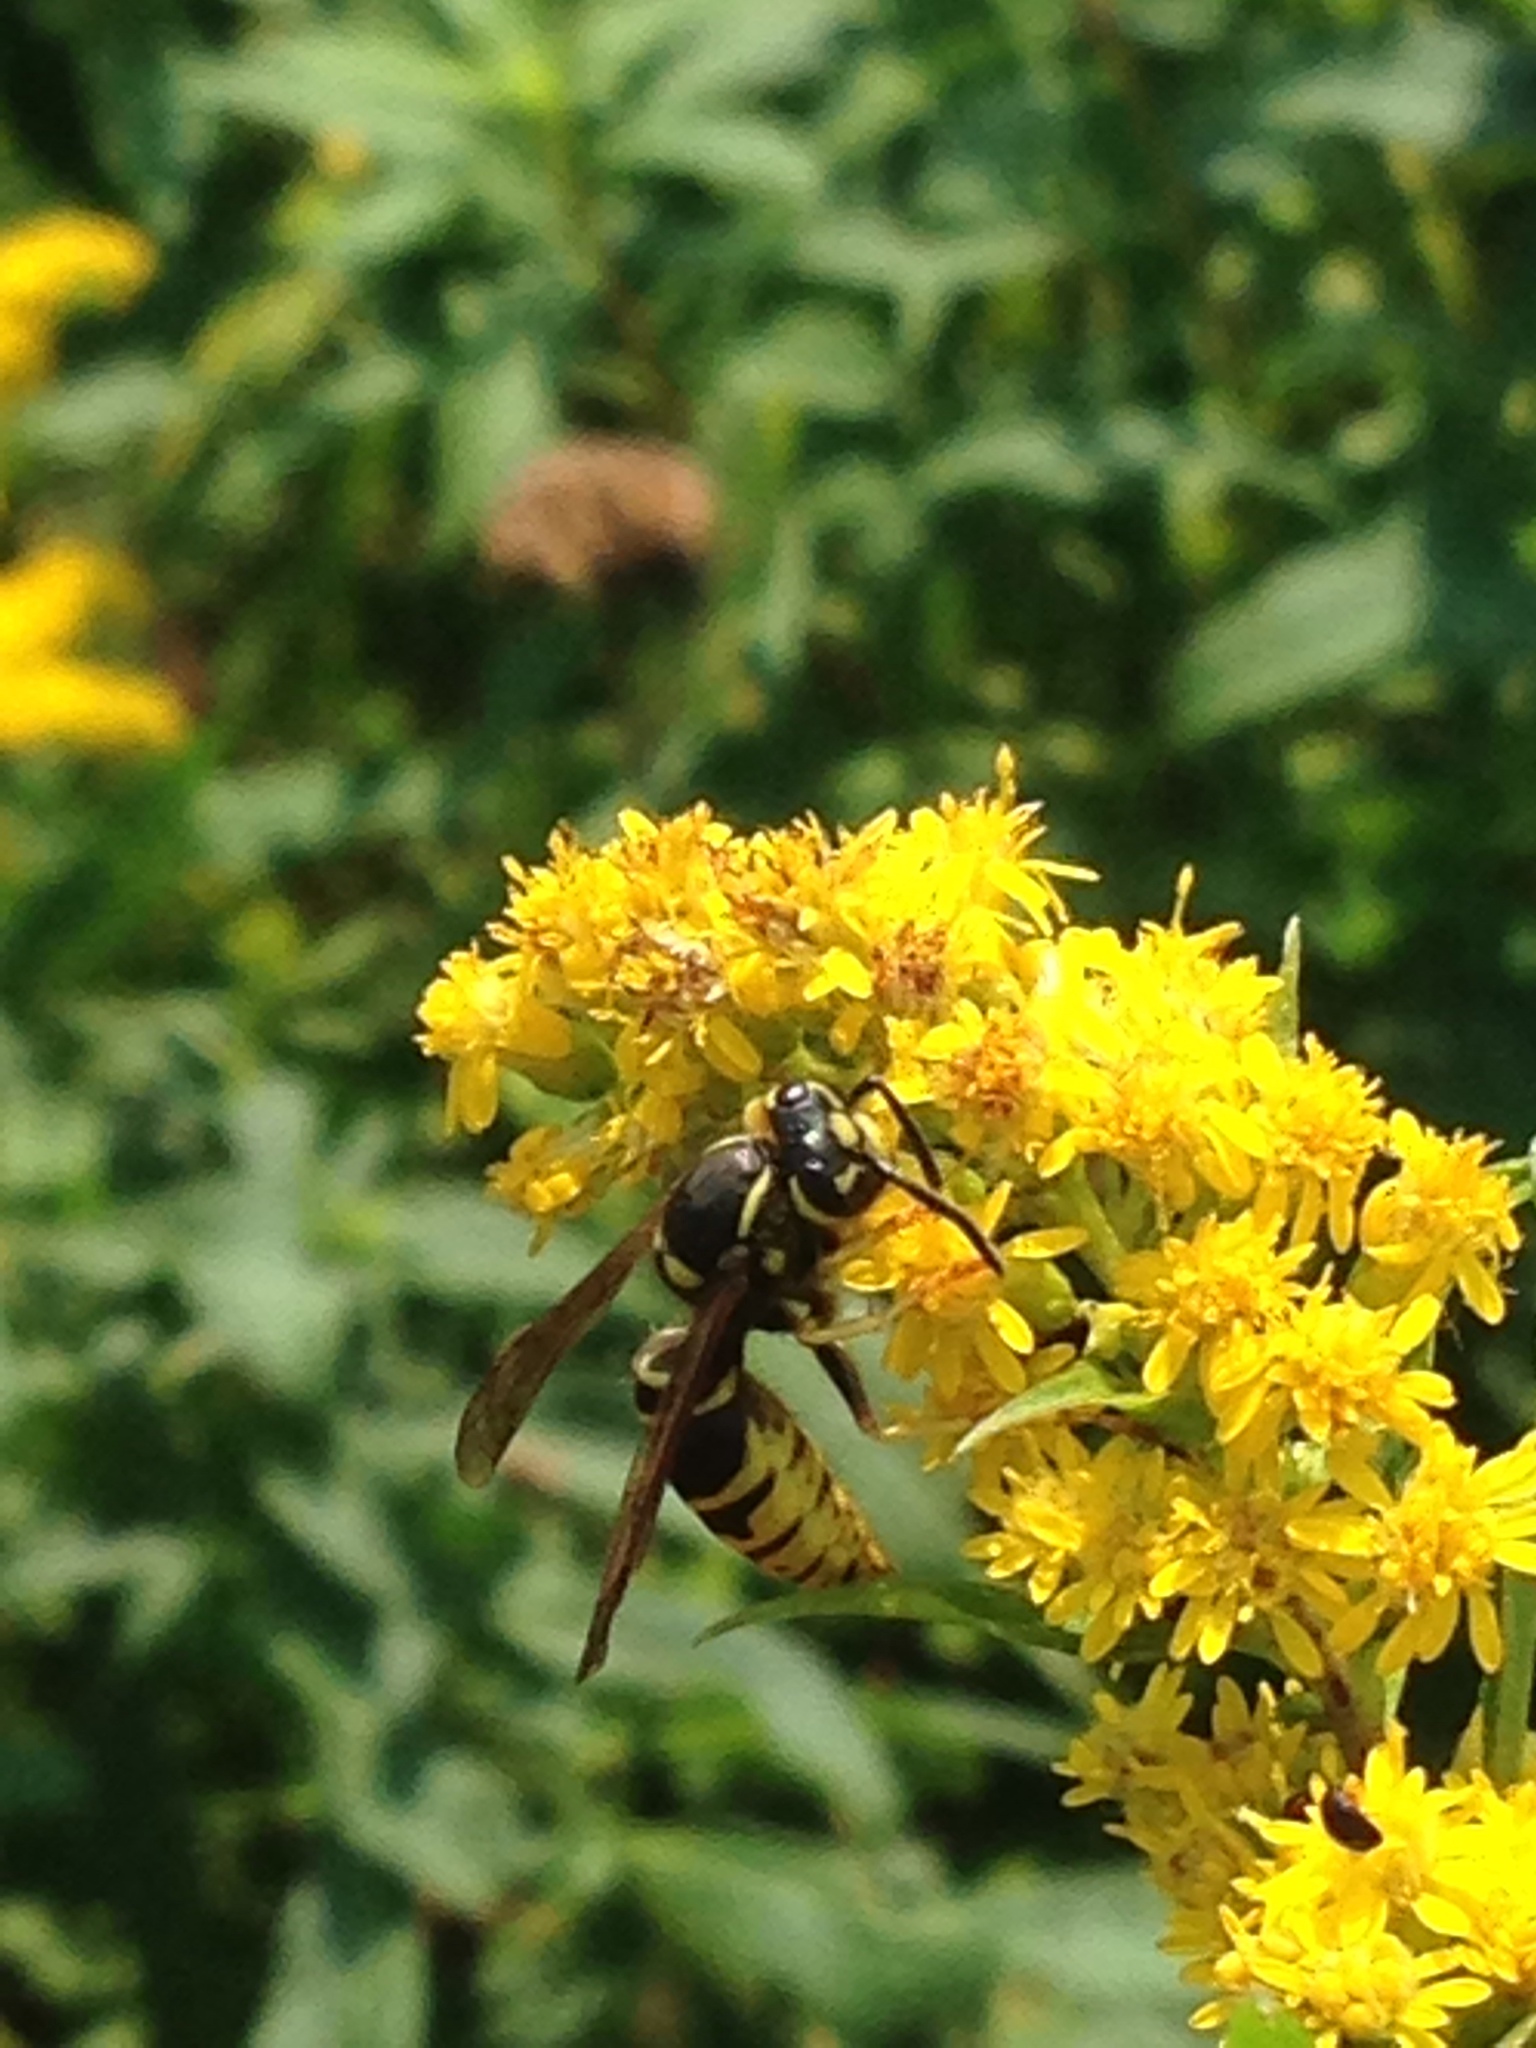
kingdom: Animalia
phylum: Arthropoda
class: Insecta
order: Hymenoptera
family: Vespidae
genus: Vespula
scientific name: Vespula vidua
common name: Widow yellowjacket
